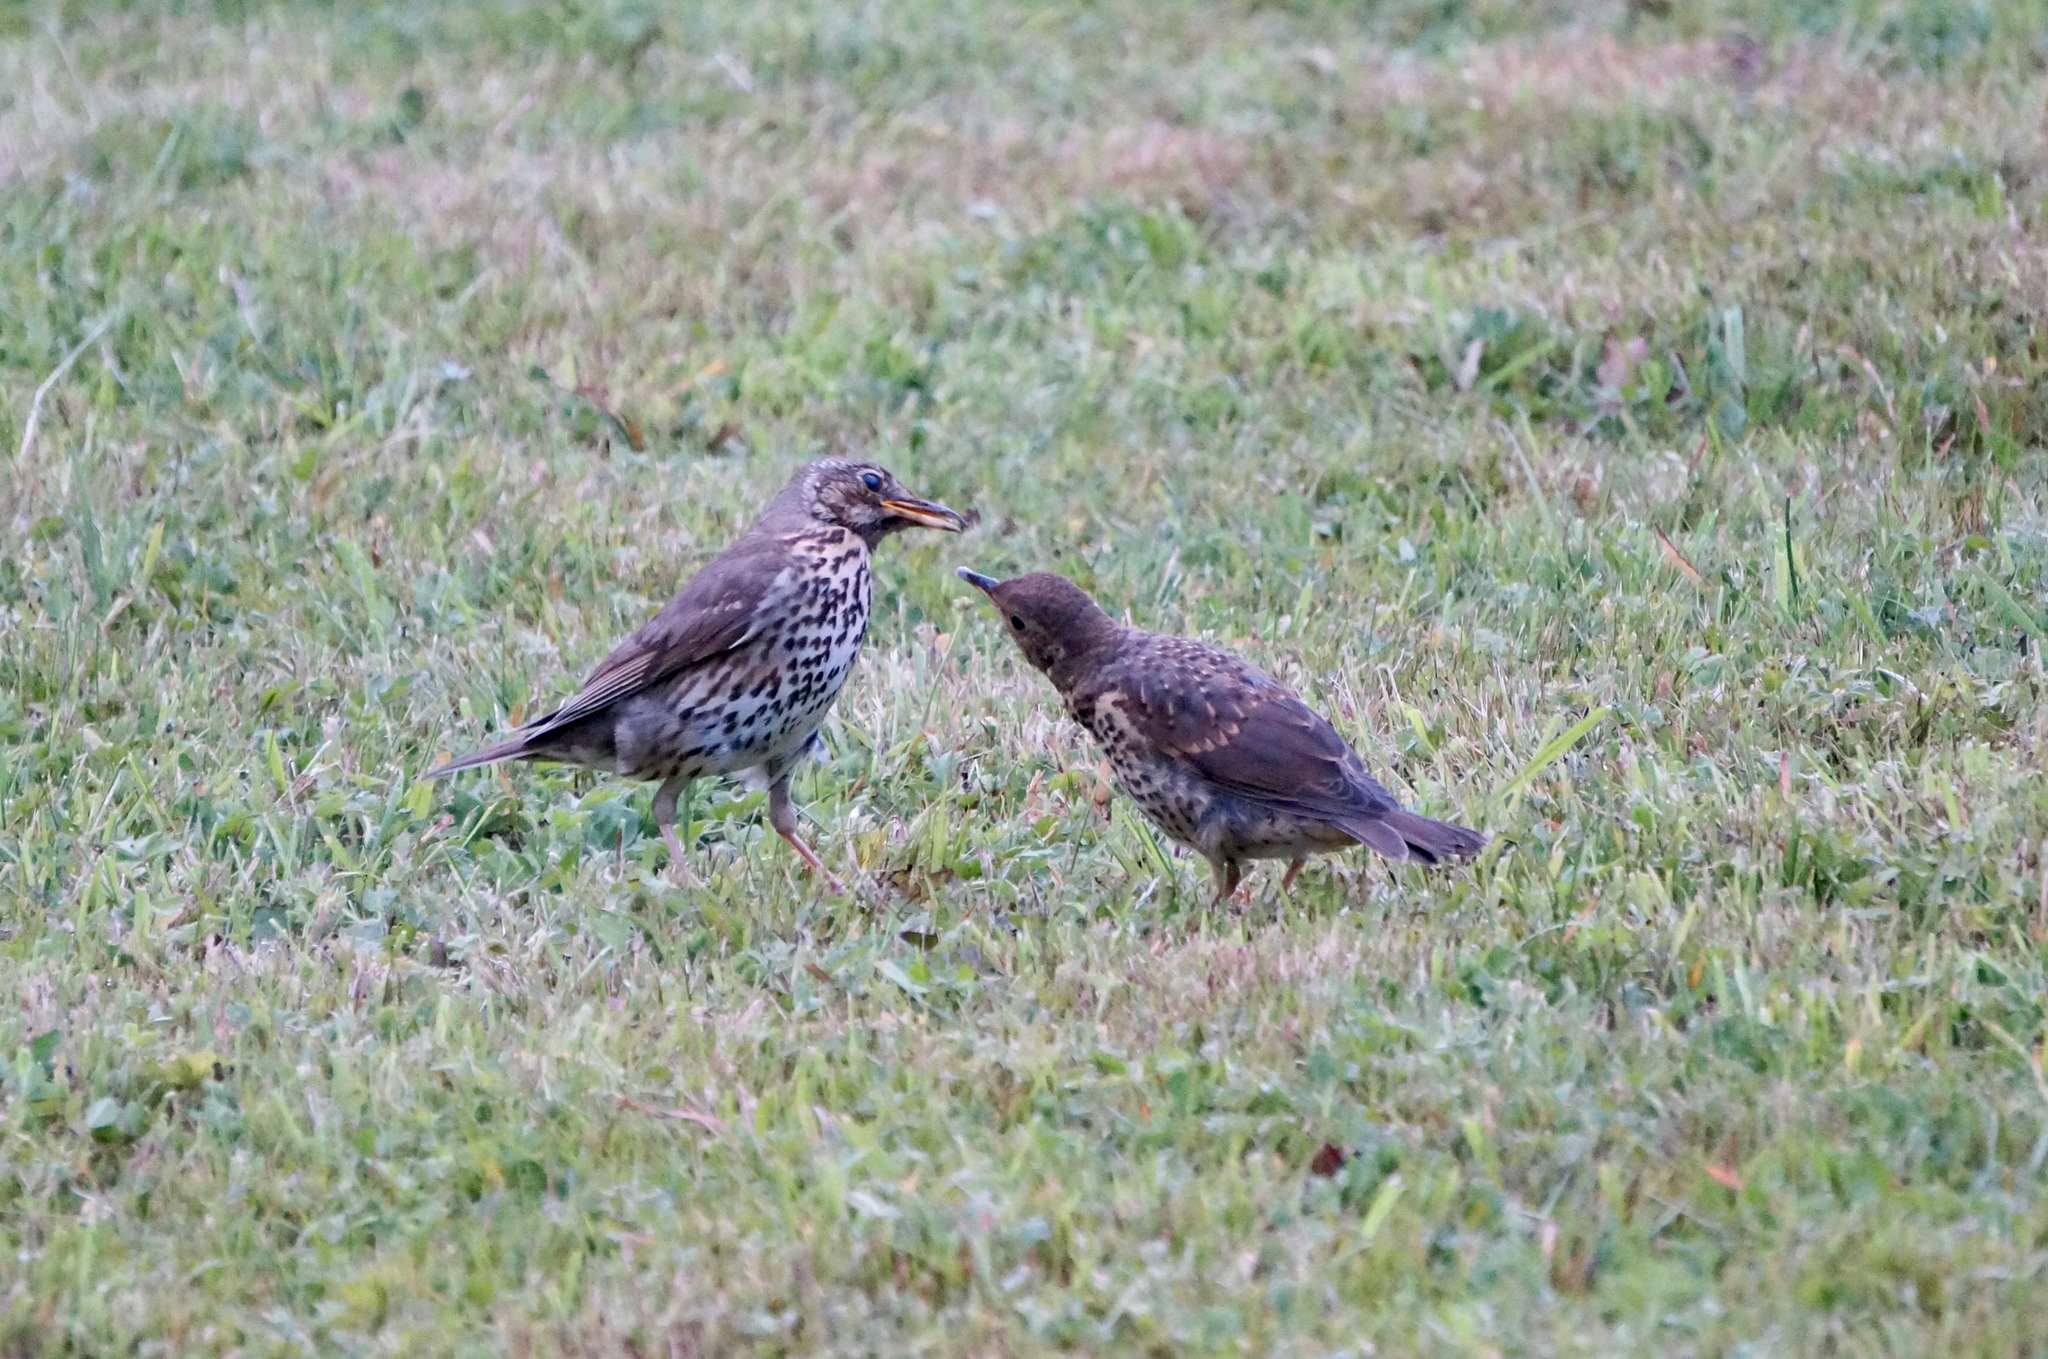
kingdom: Animalia
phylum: Chordata
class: Aves
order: Passeriformes
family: Turdidae
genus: Turdus
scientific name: Turdus philomelos
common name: Song thrush
